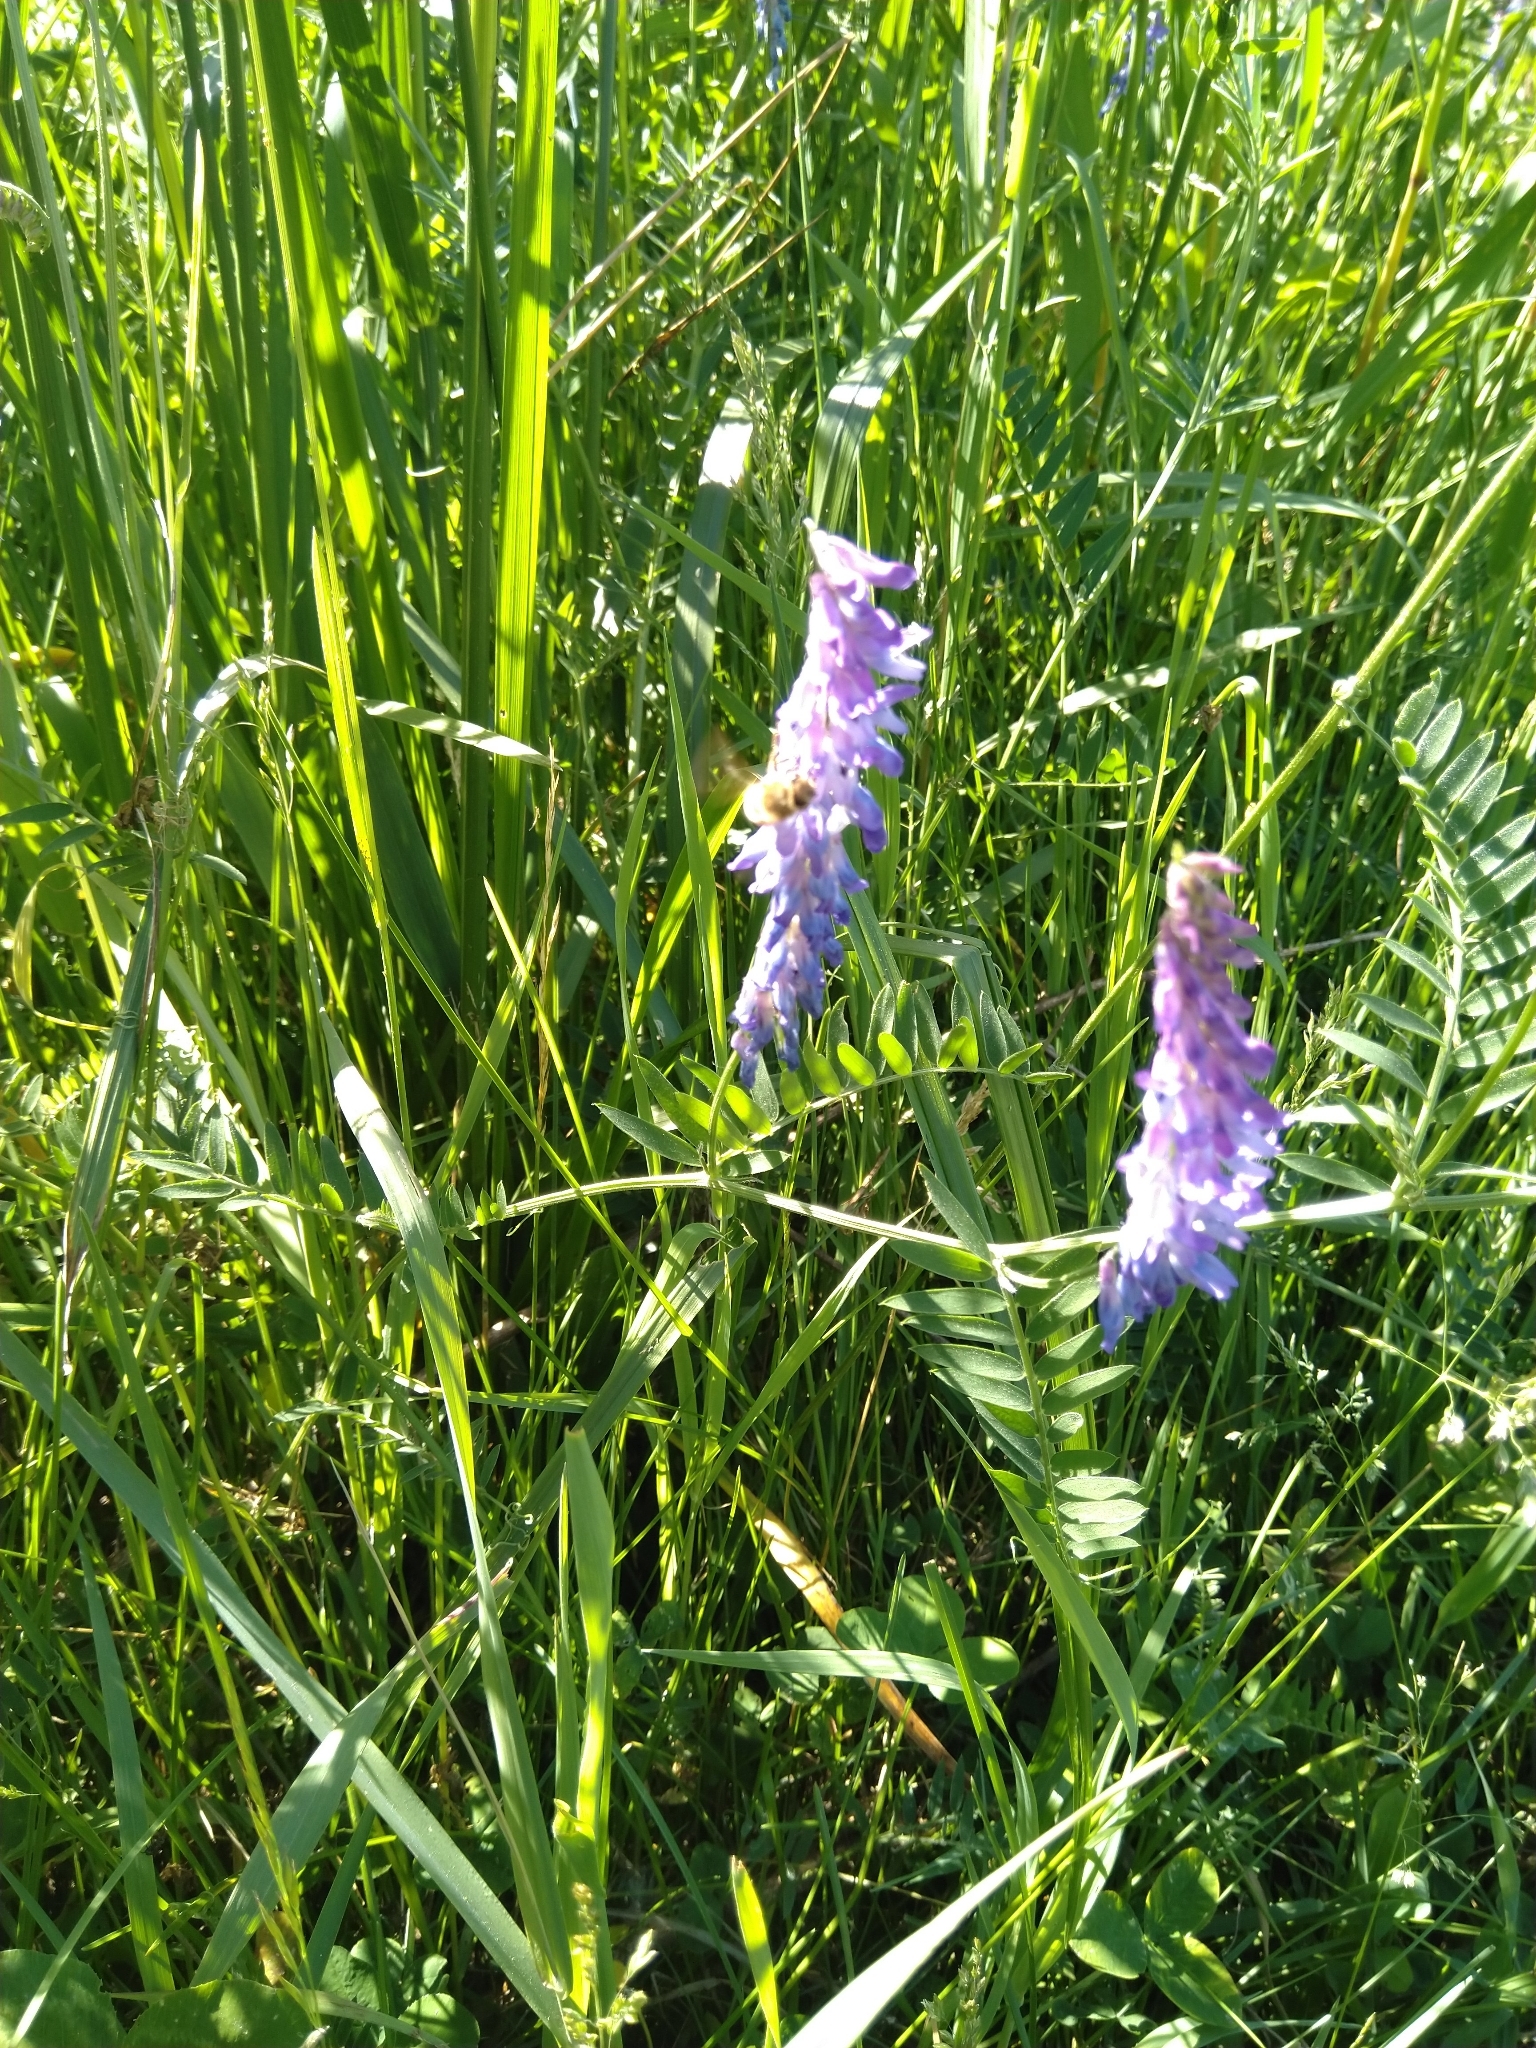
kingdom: Plantae
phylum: Tracheophyta
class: Magnoliopsida
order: Fabales
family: Fabaceae
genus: Vicia
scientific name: Vicia cracca
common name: Bird vetch
